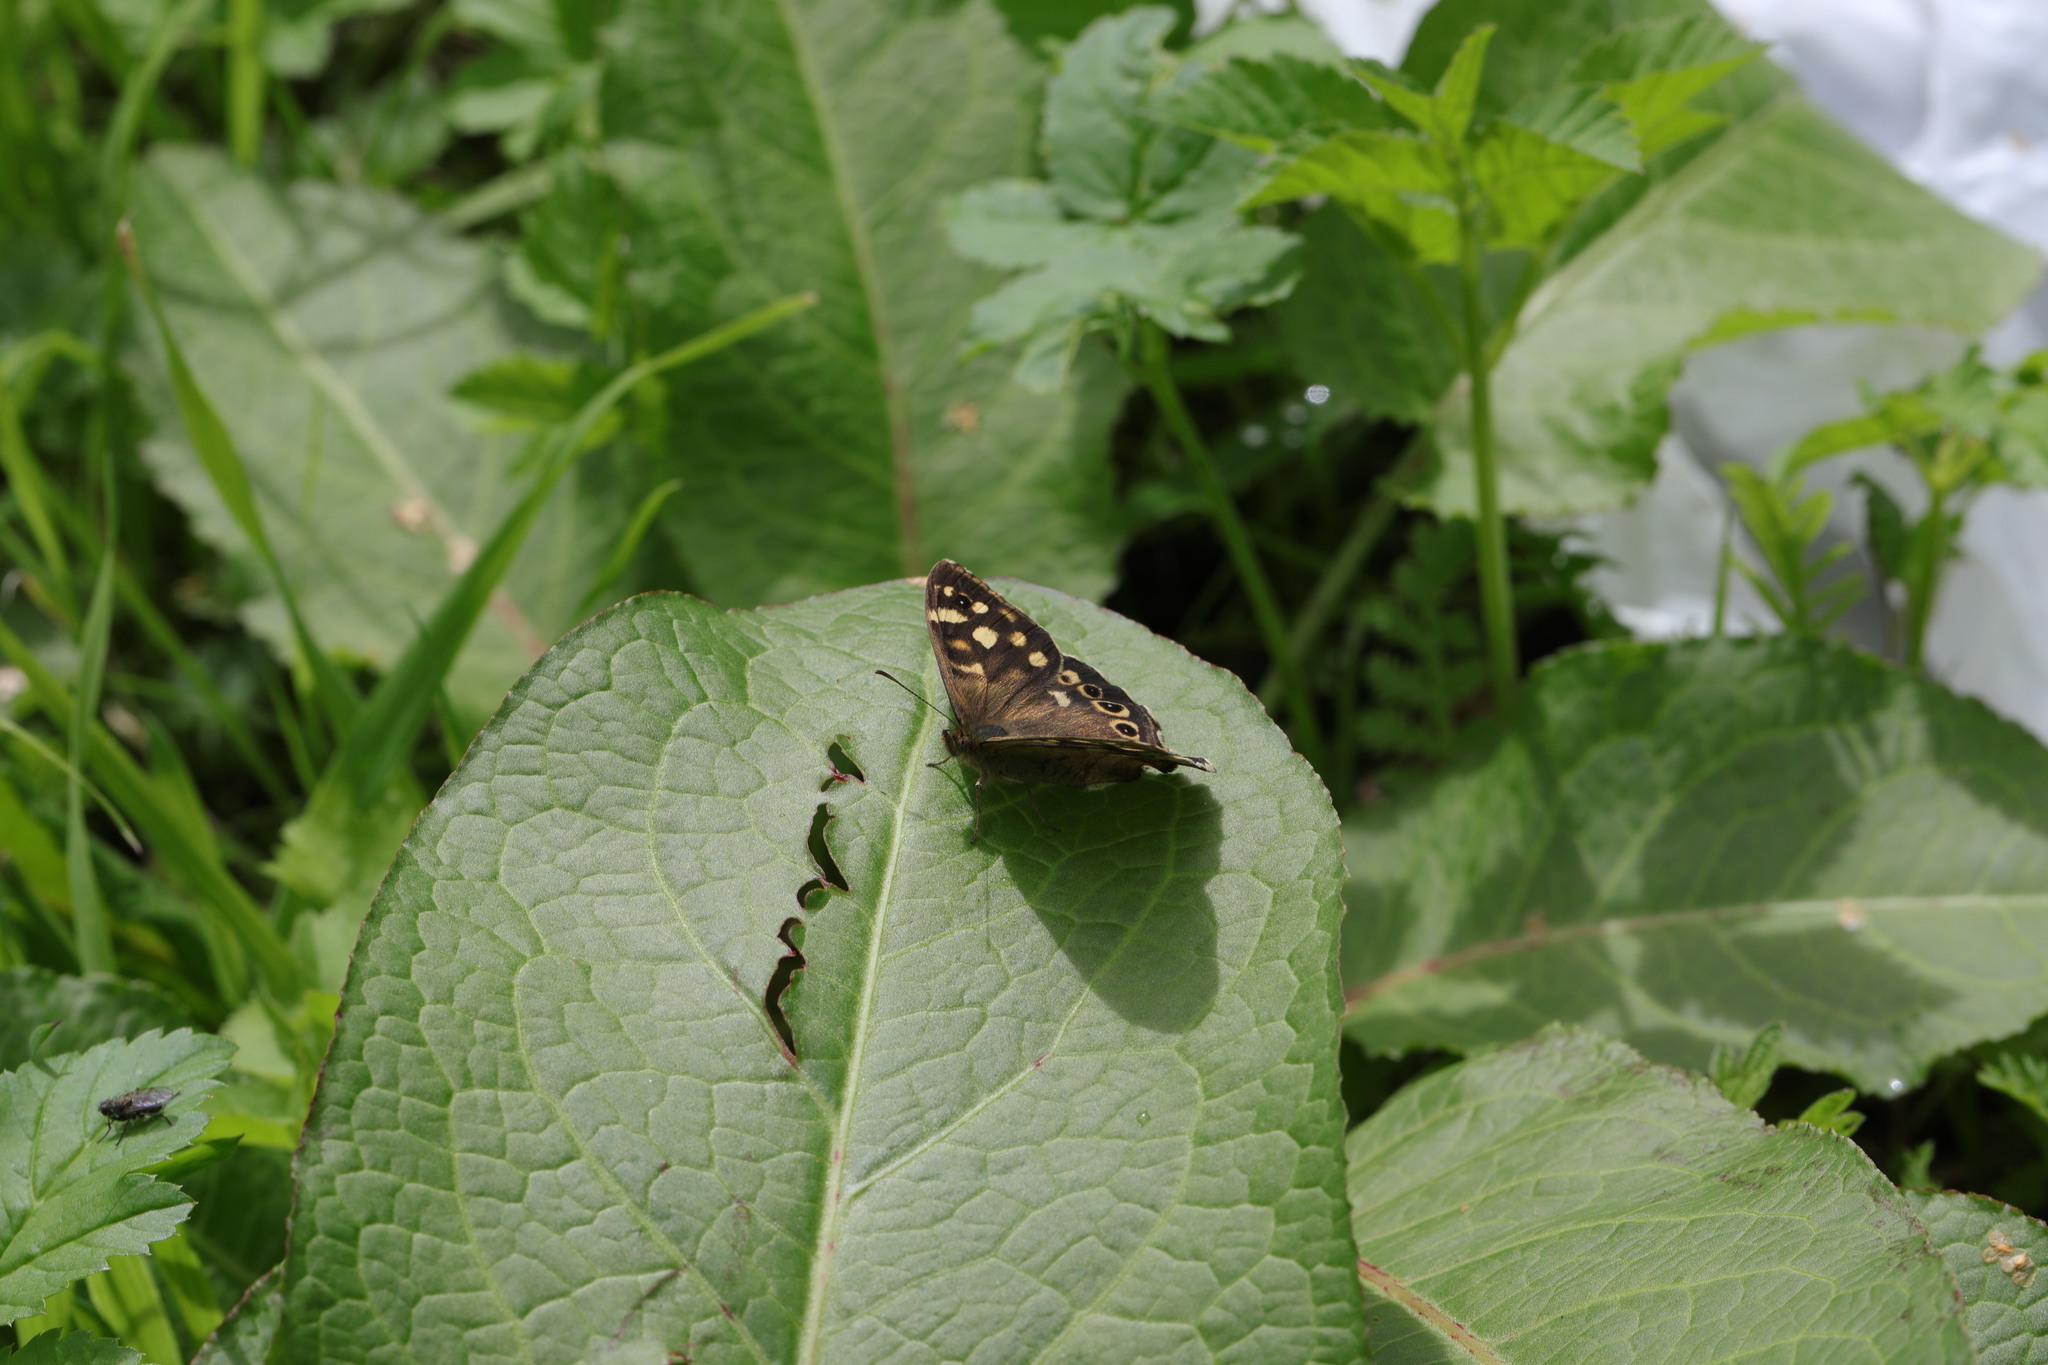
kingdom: Animalia
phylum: Arthropoda
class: Insecta
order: Lepidoptera
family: Nymphalidae
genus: Pararge
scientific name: Pararge aegeria
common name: Speckled wood
